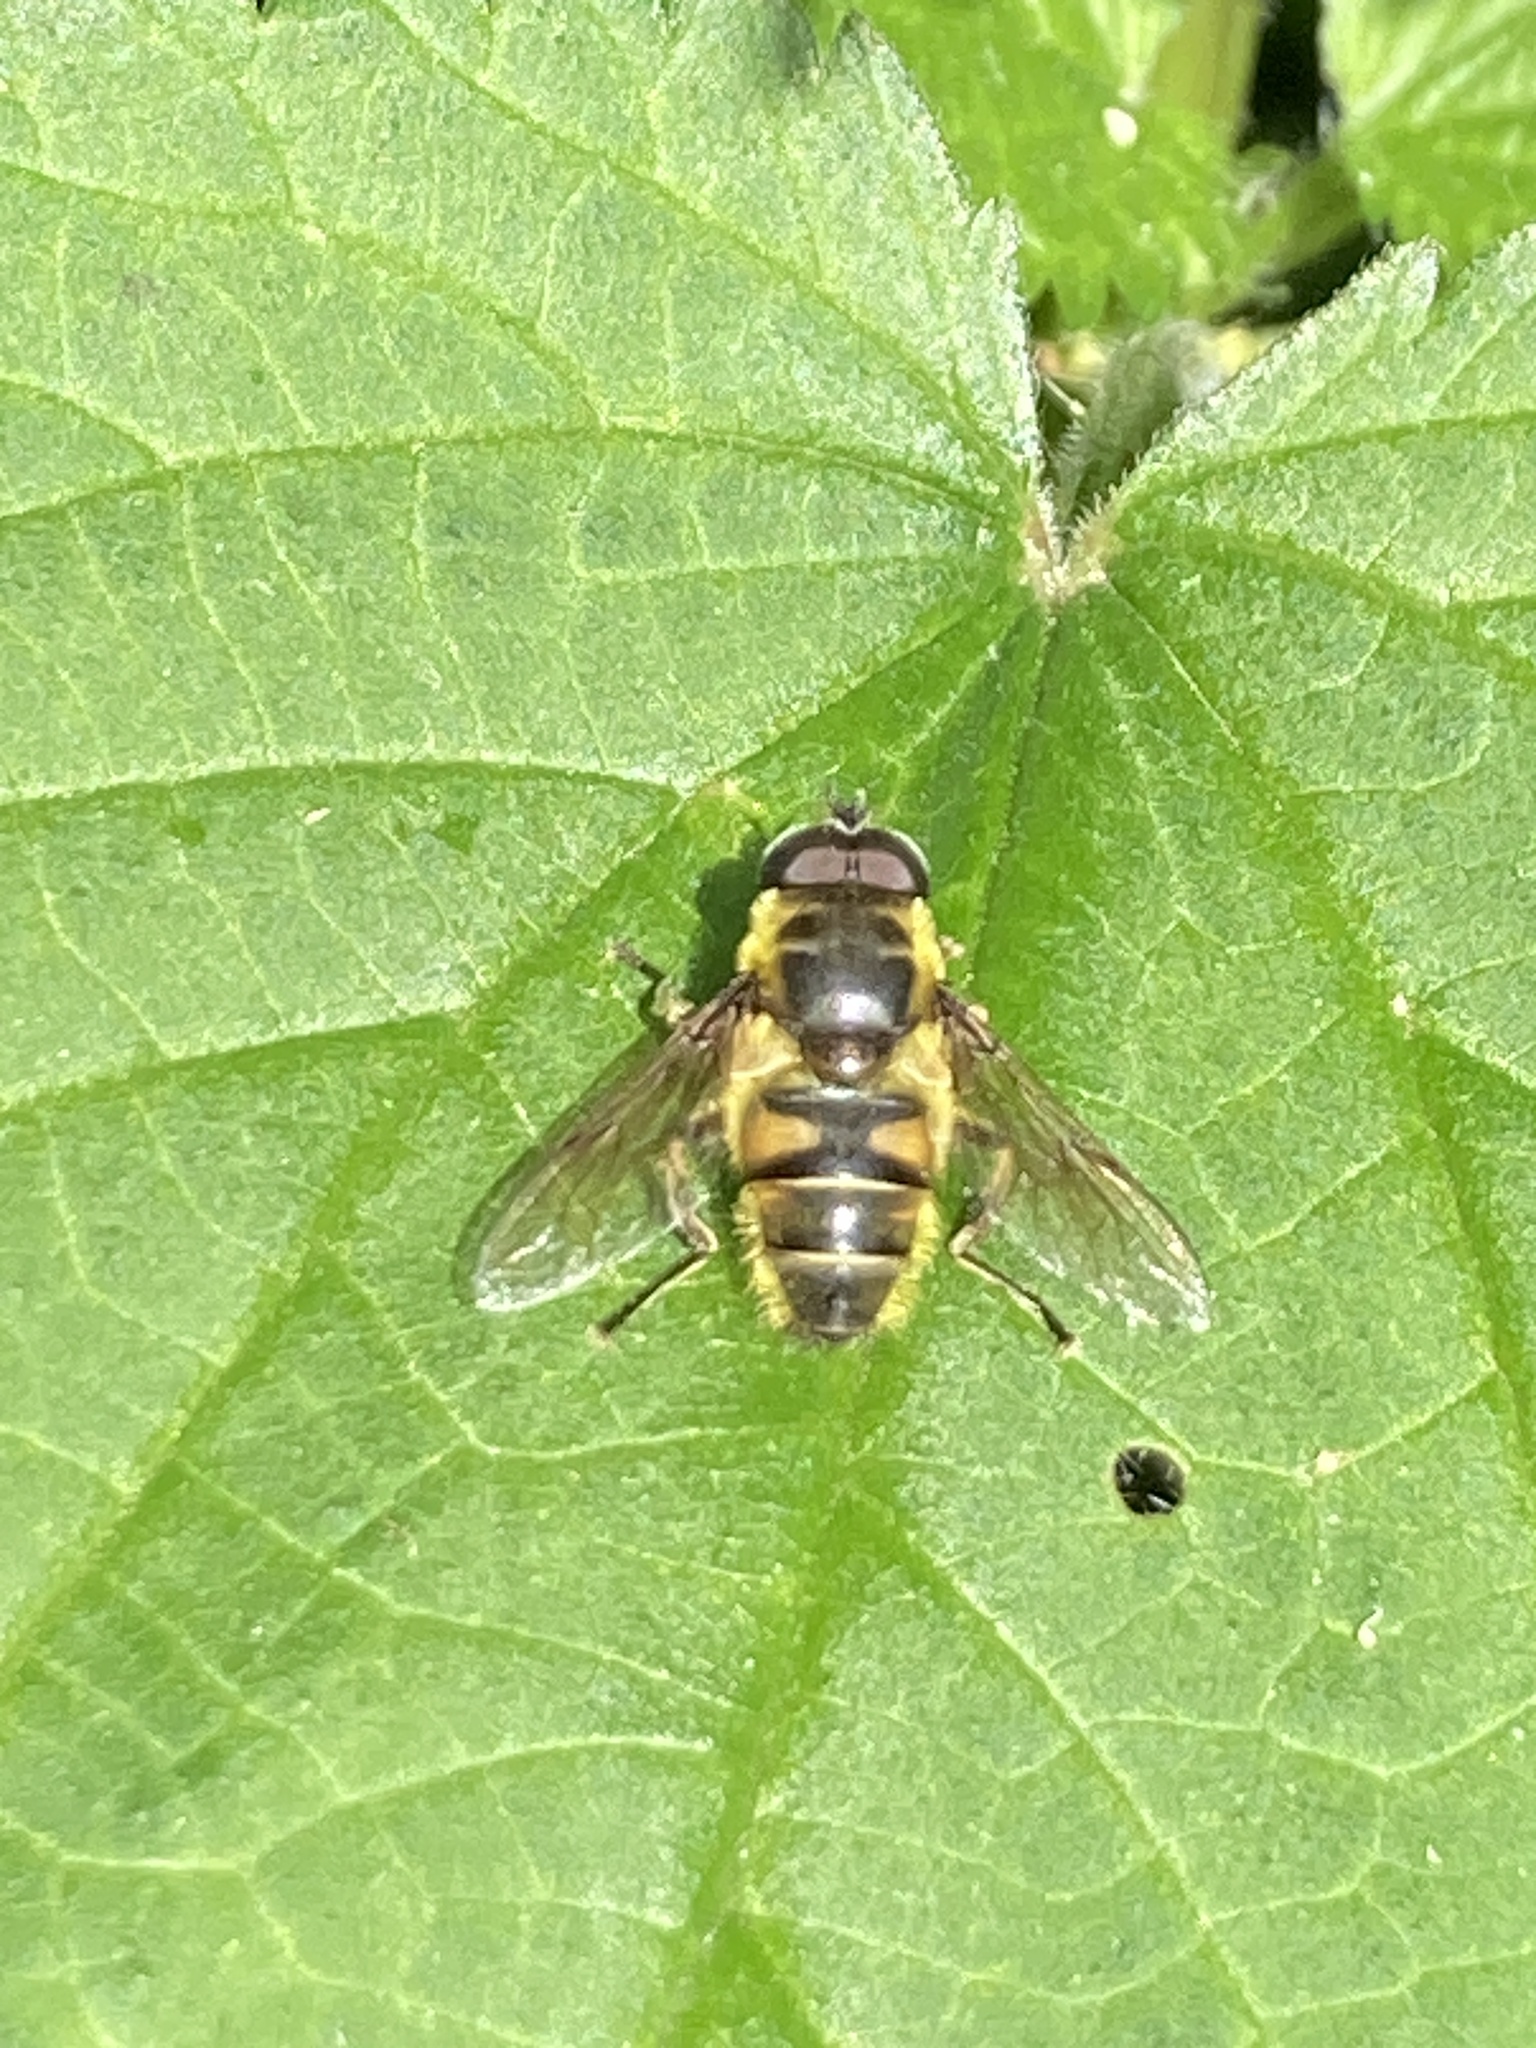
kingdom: Animalia
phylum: Arthropoda
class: Insecta
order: Diptera
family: Syrphidae
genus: Myathropa
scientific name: Myathropa florea
